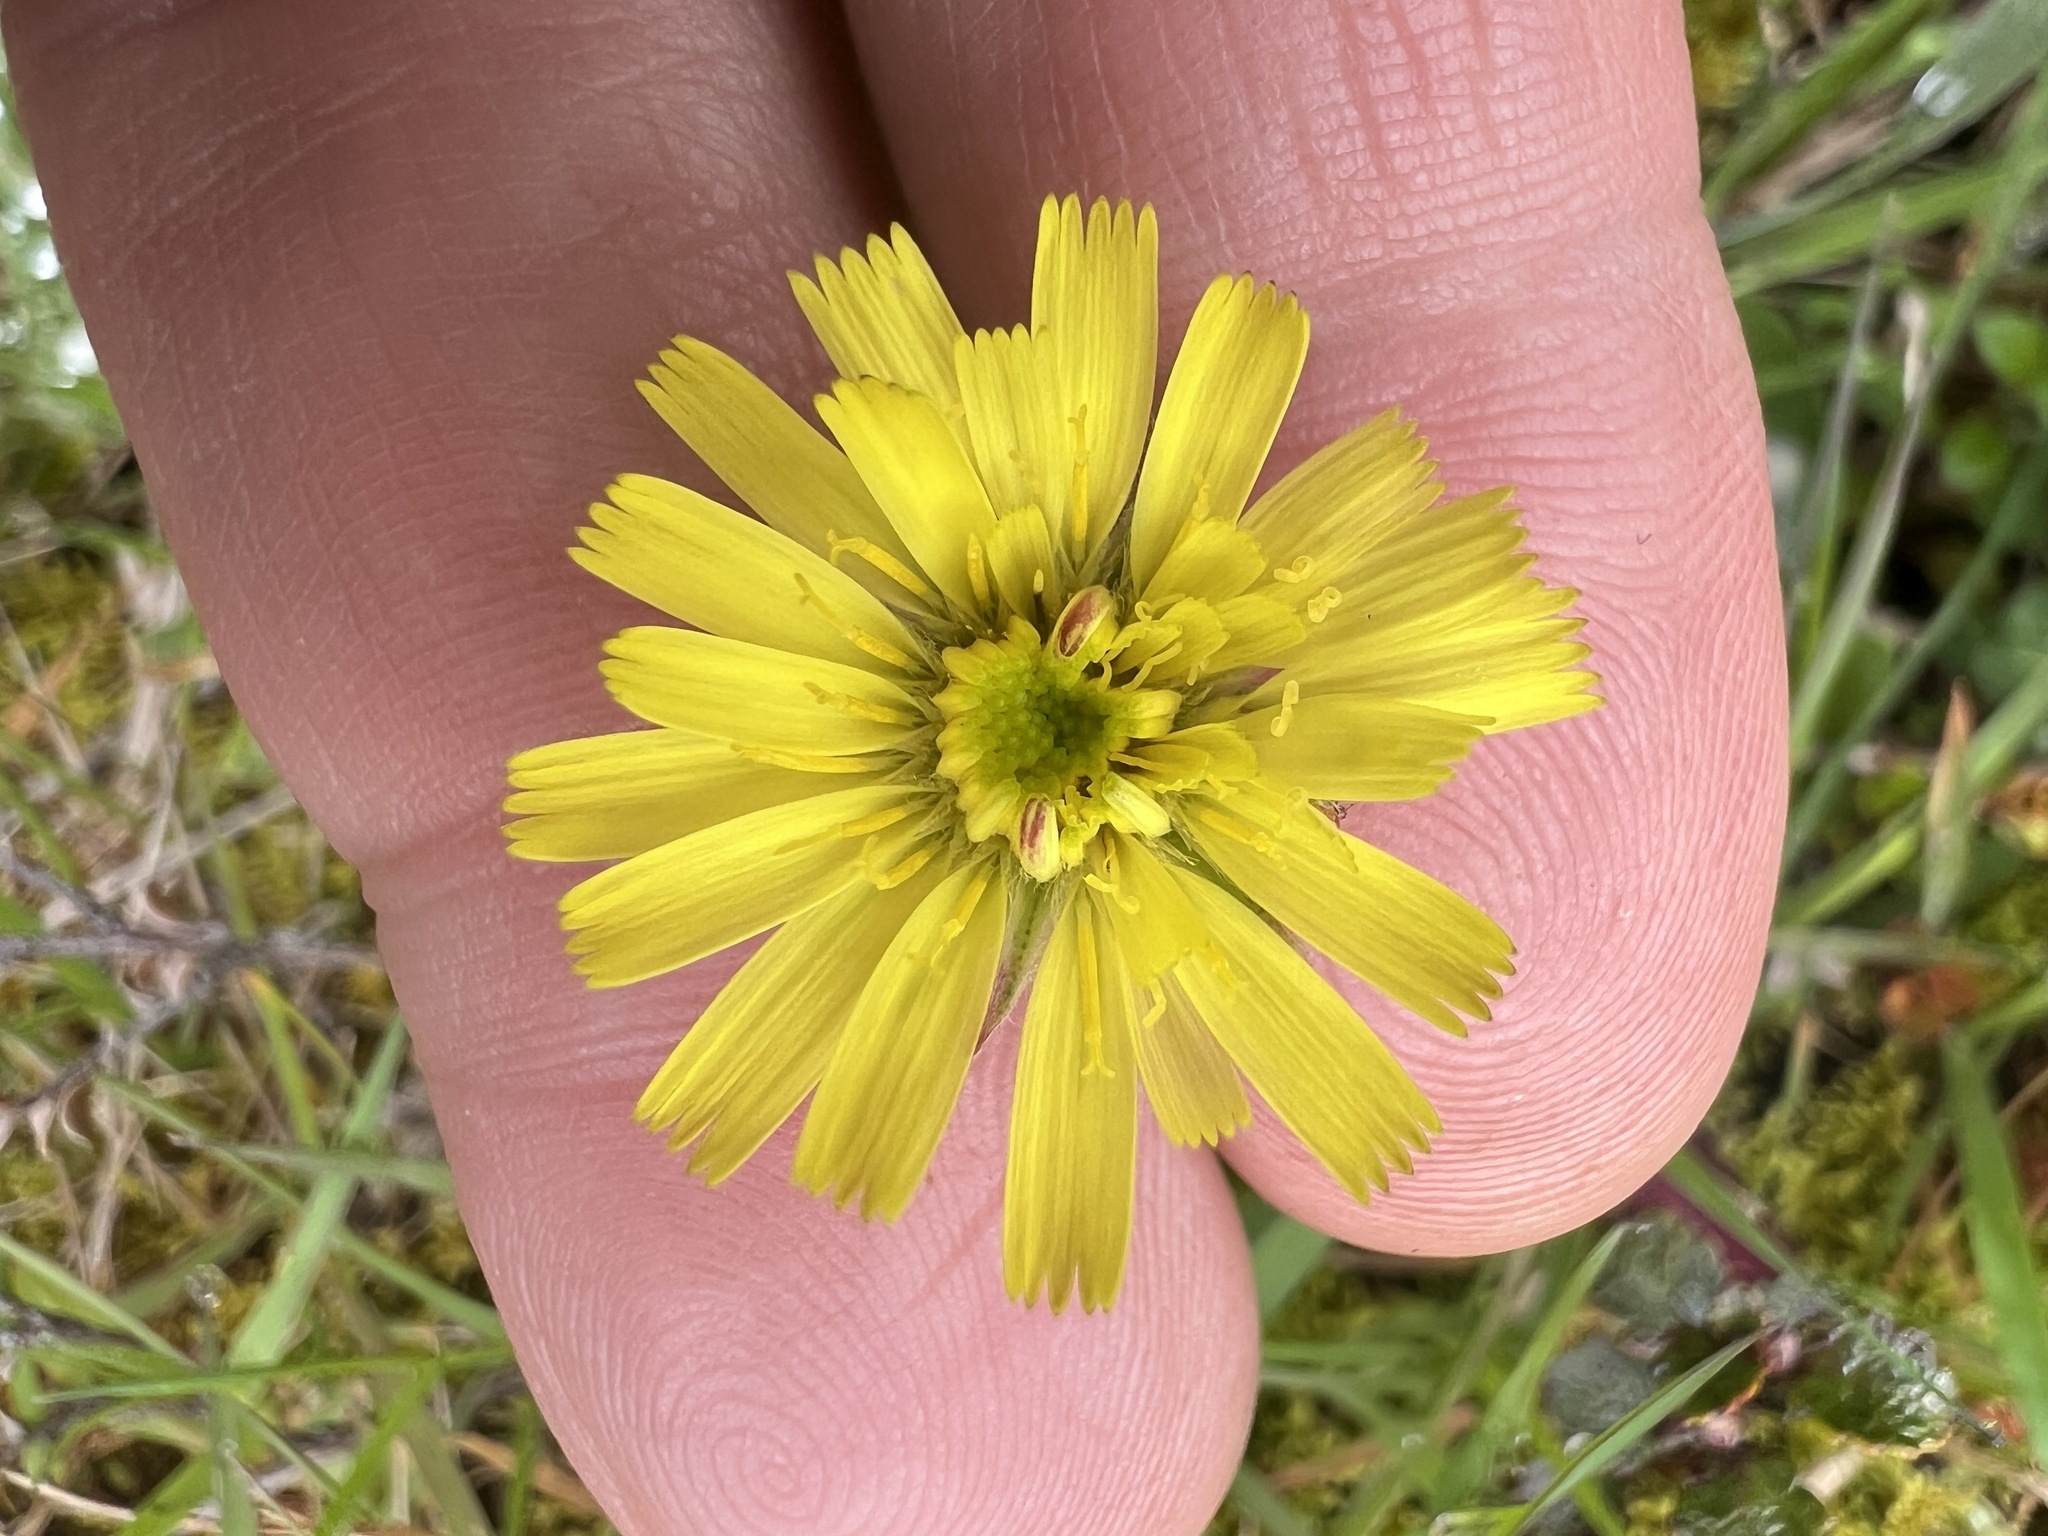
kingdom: Plantae
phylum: Tracheophyta
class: Magnoliopsida
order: Asterales
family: Asteraceae
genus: Pilosella
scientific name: Pilosella officinarum
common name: Mouse-ear hawkweed
